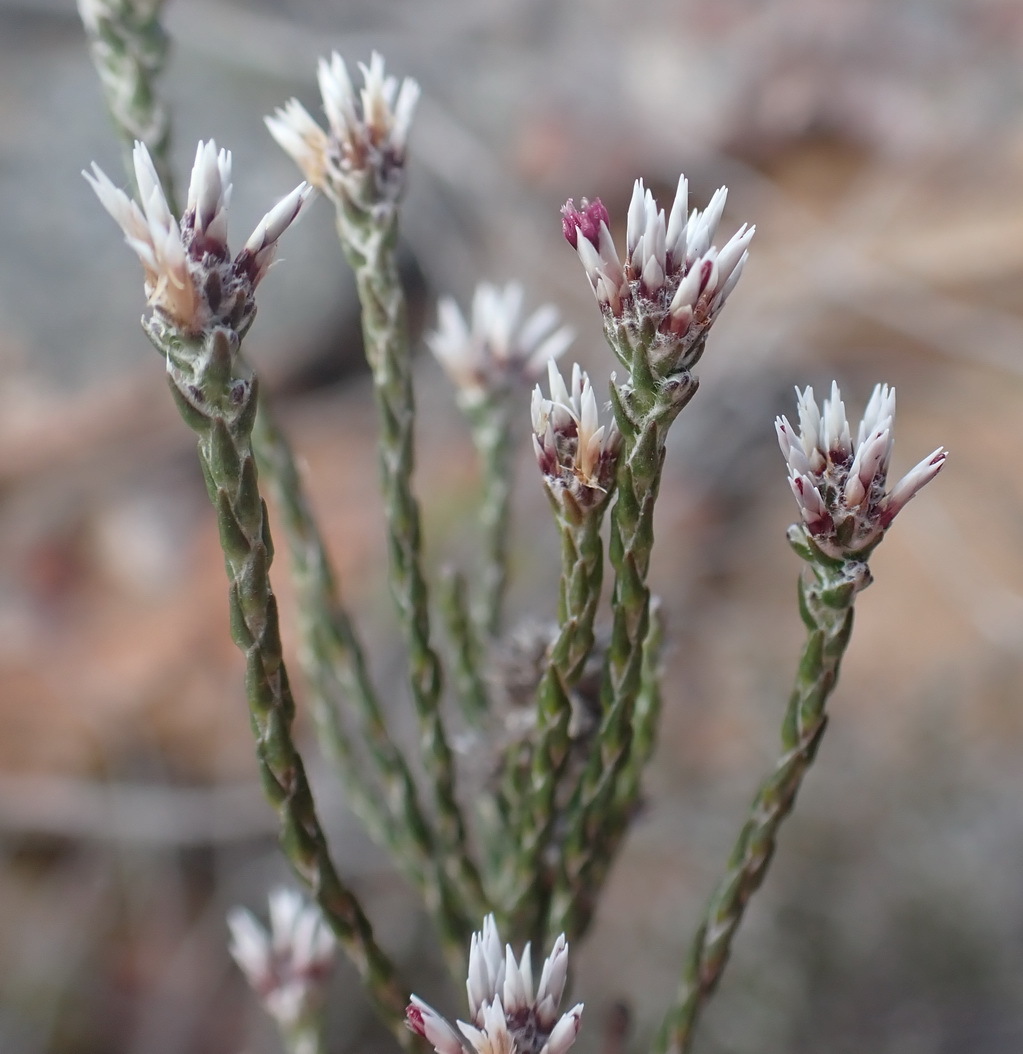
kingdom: Plantae
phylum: Tracheophyta
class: Magnoliopsida
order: Asterales
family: Asteraceae
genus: Stoebe
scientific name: Stoebe microphylla
